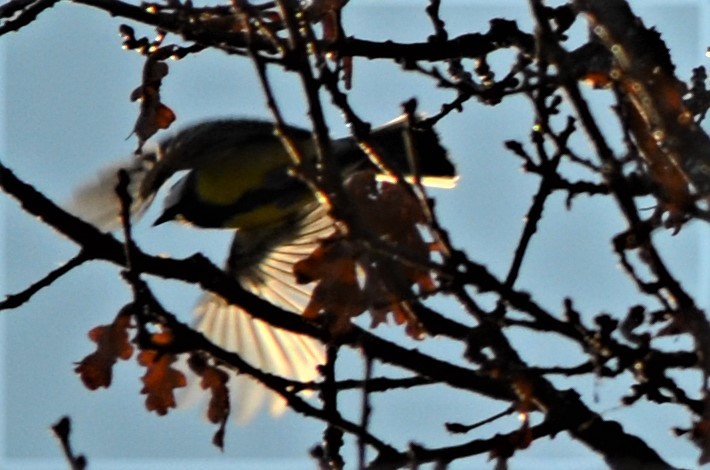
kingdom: Animalia
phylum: Chordata
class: Aves
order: Passeriformes
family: Paridae
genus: Parus
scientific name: Parus major
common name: Great tit
